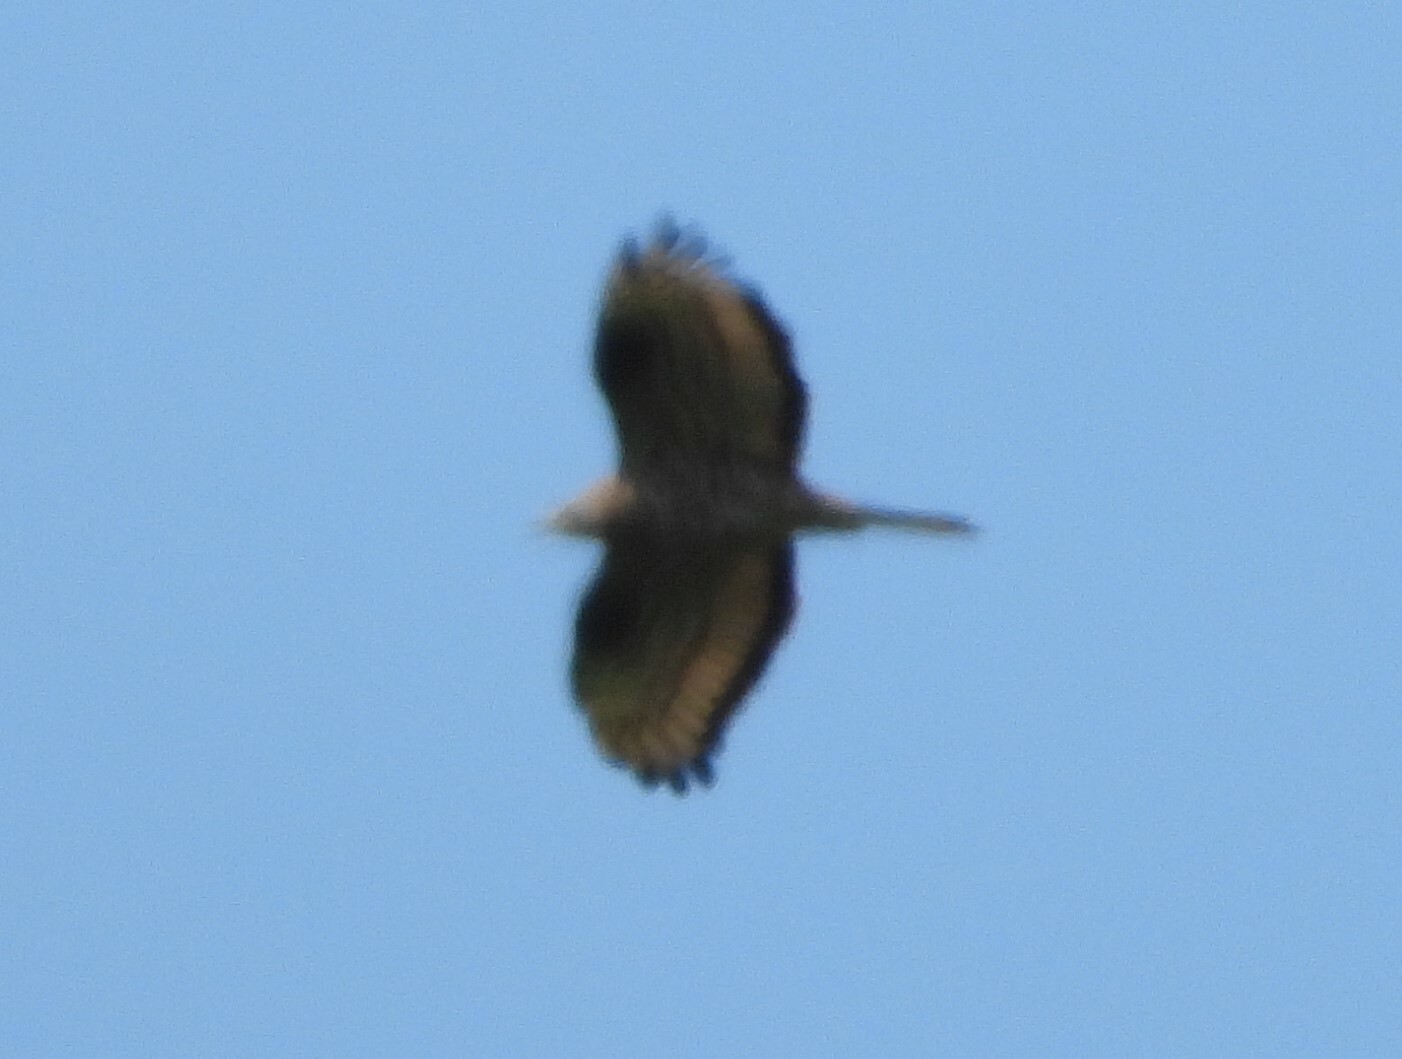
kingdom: Animalia
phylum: Chordata
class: Aves
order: Accipitriformes
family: Accipitridae
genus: Pernis
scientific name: Pernis apivorus
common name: European honey buzzard
